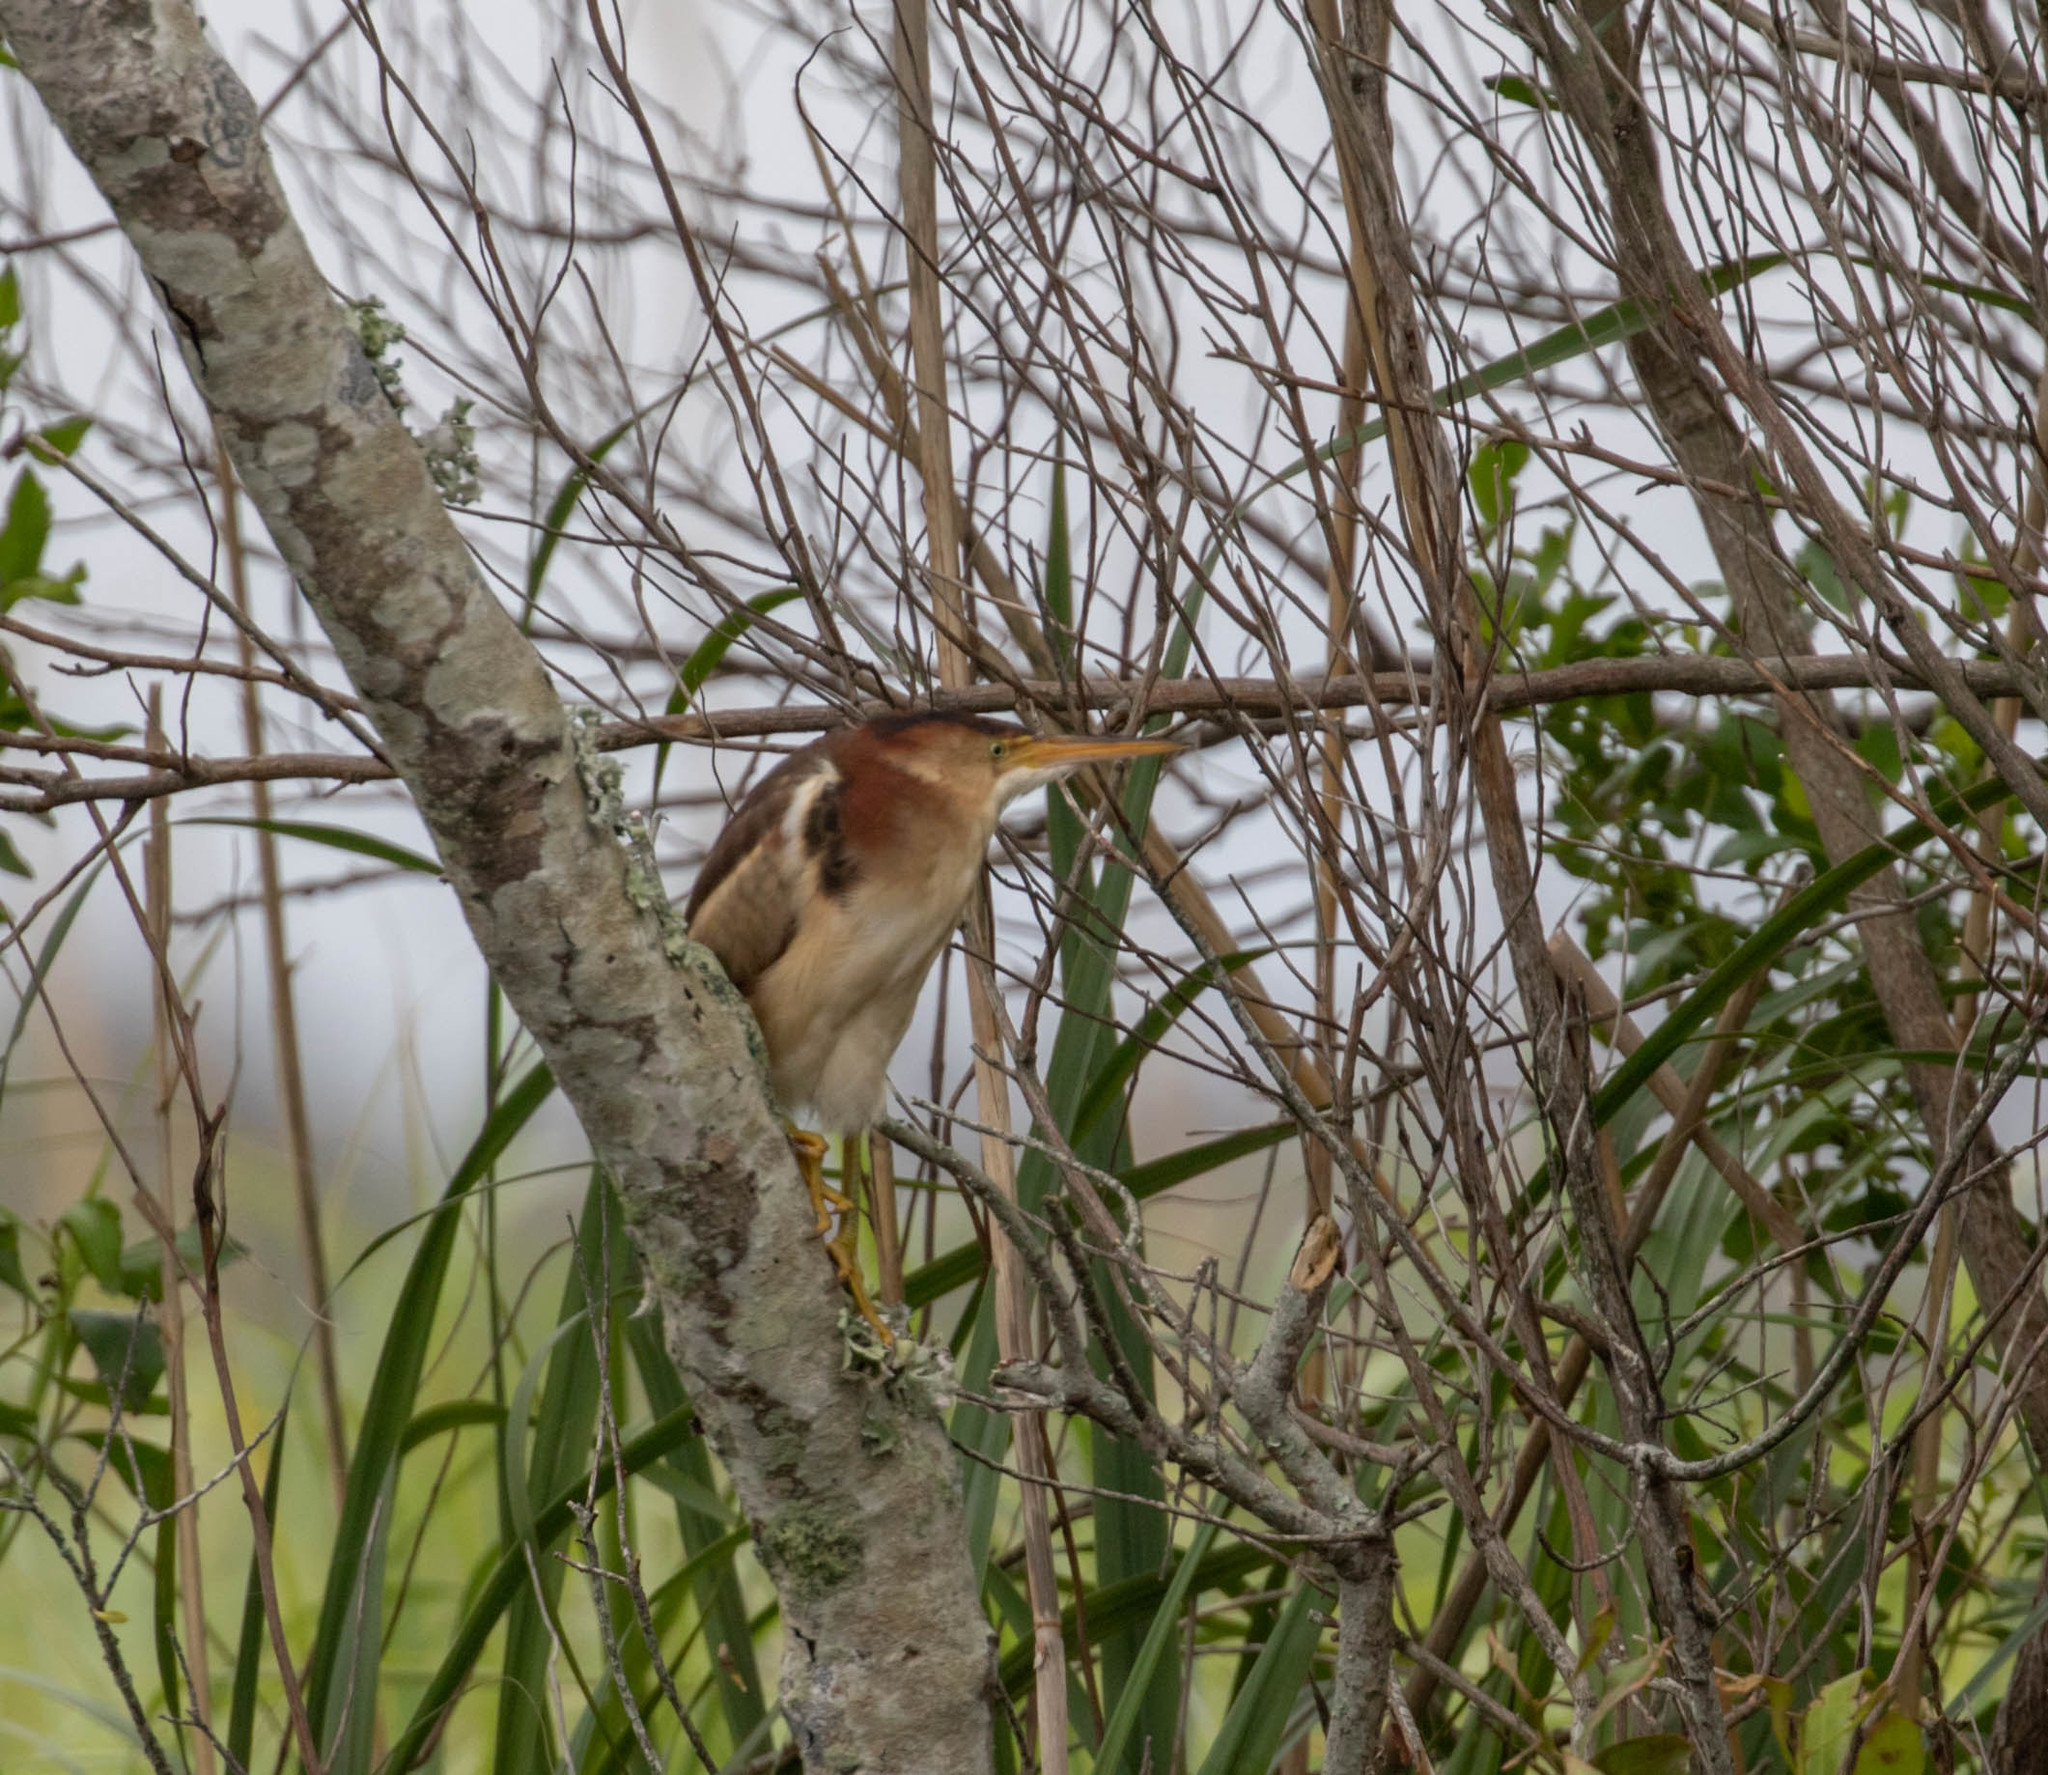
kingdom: Animalia
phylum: Chordata
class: Aves
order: Pelecaniformes
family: Ardeidae
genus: Ixobrychus
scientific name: Ixobrychus exilis
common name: Least bittern
